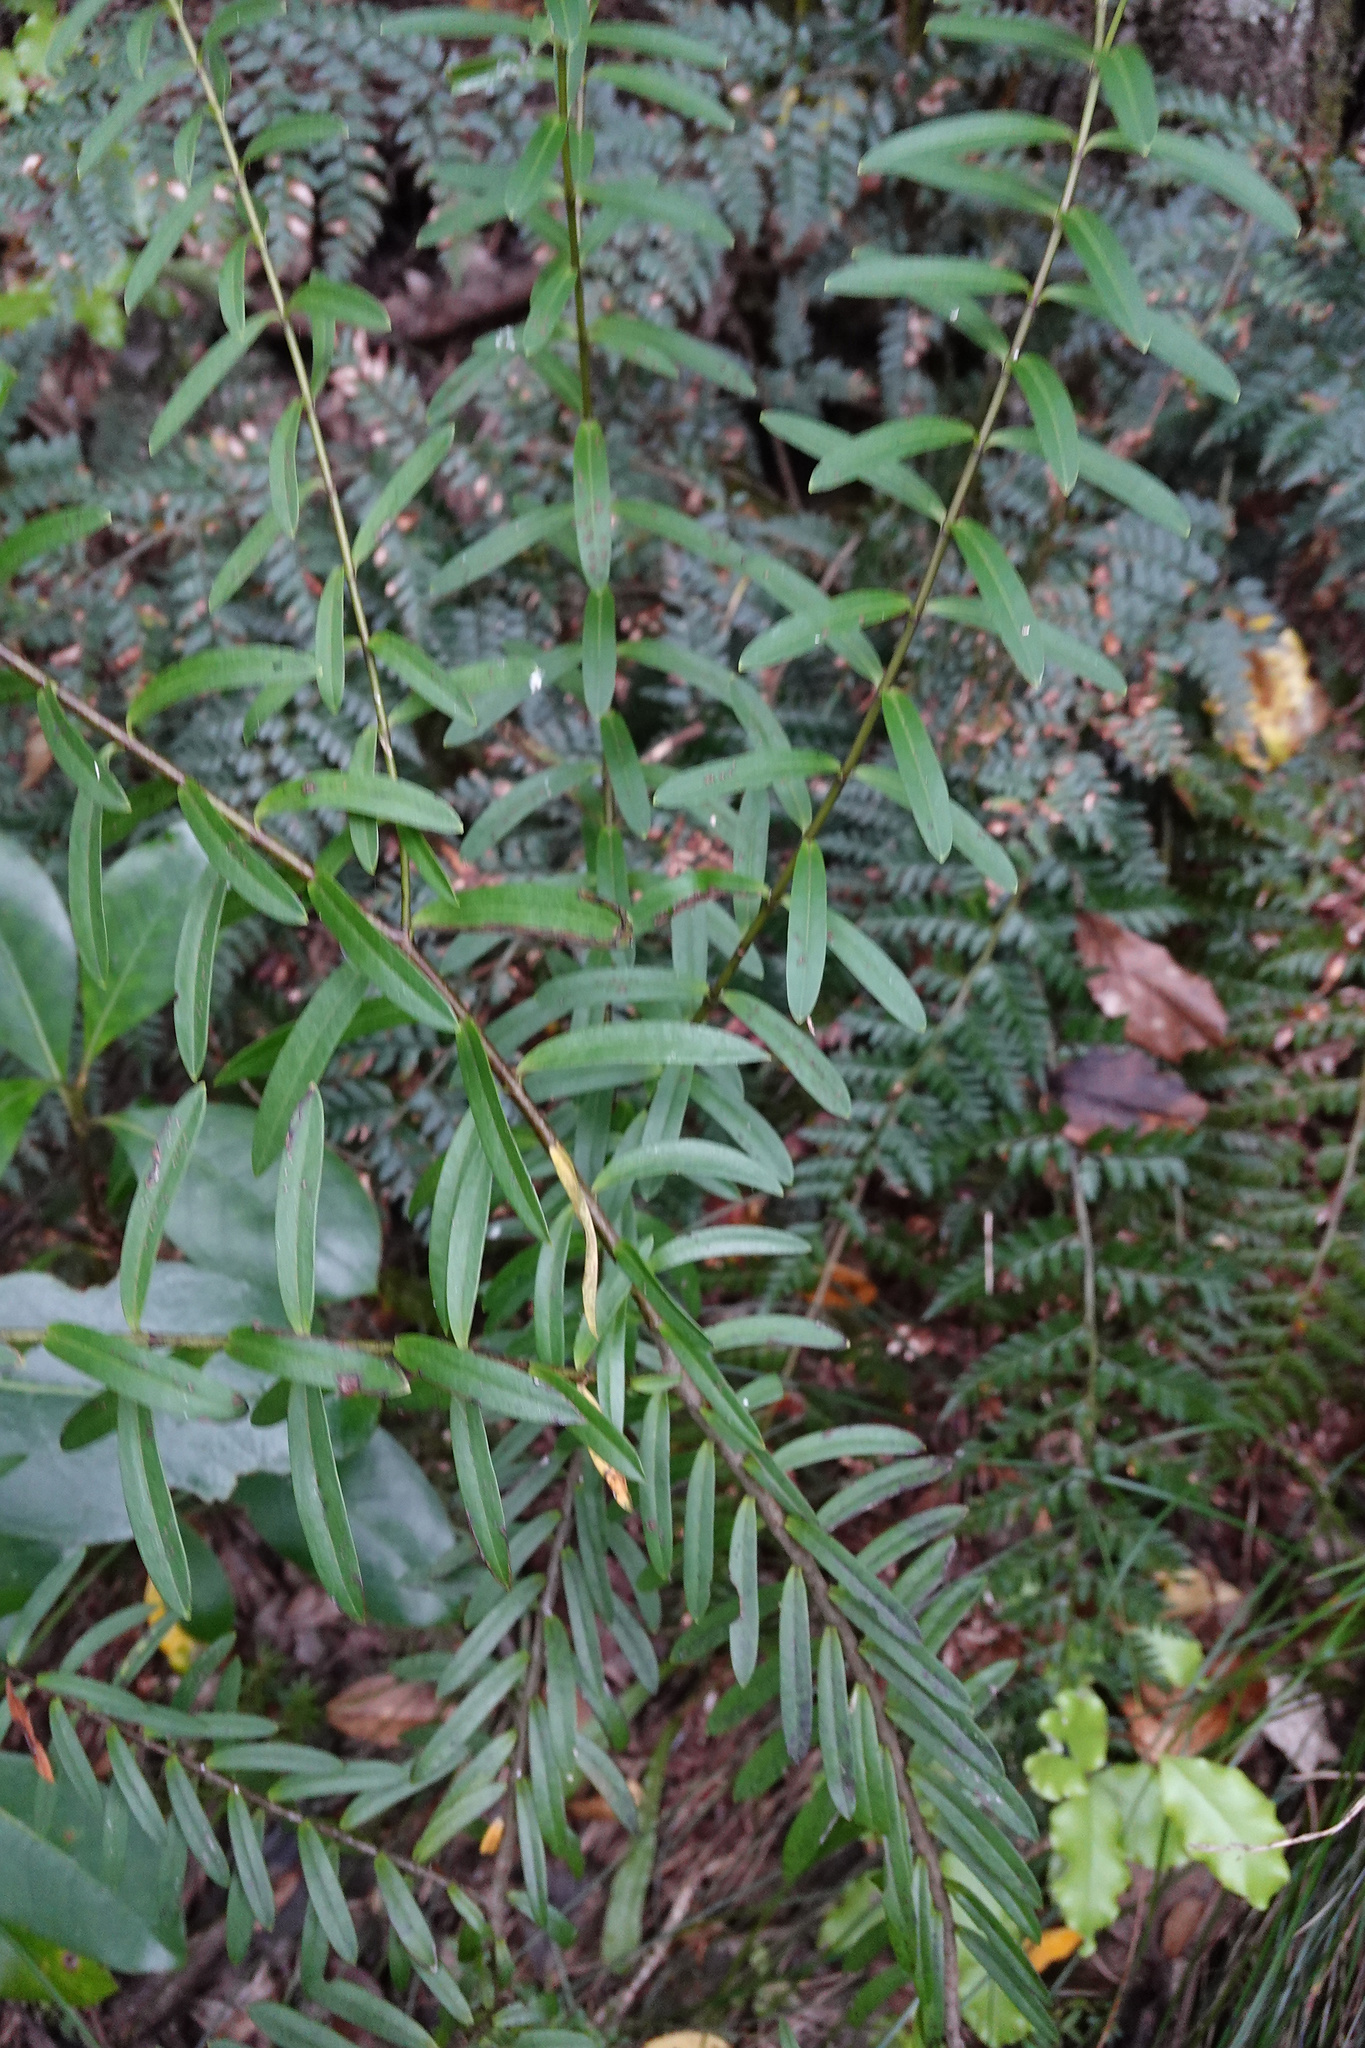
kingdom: Plantae
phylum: Tracheophyta
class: Magnoliopsida
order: Lamiales
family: Plantaginaceae
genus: Veronica
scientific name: Veronica strictissima
